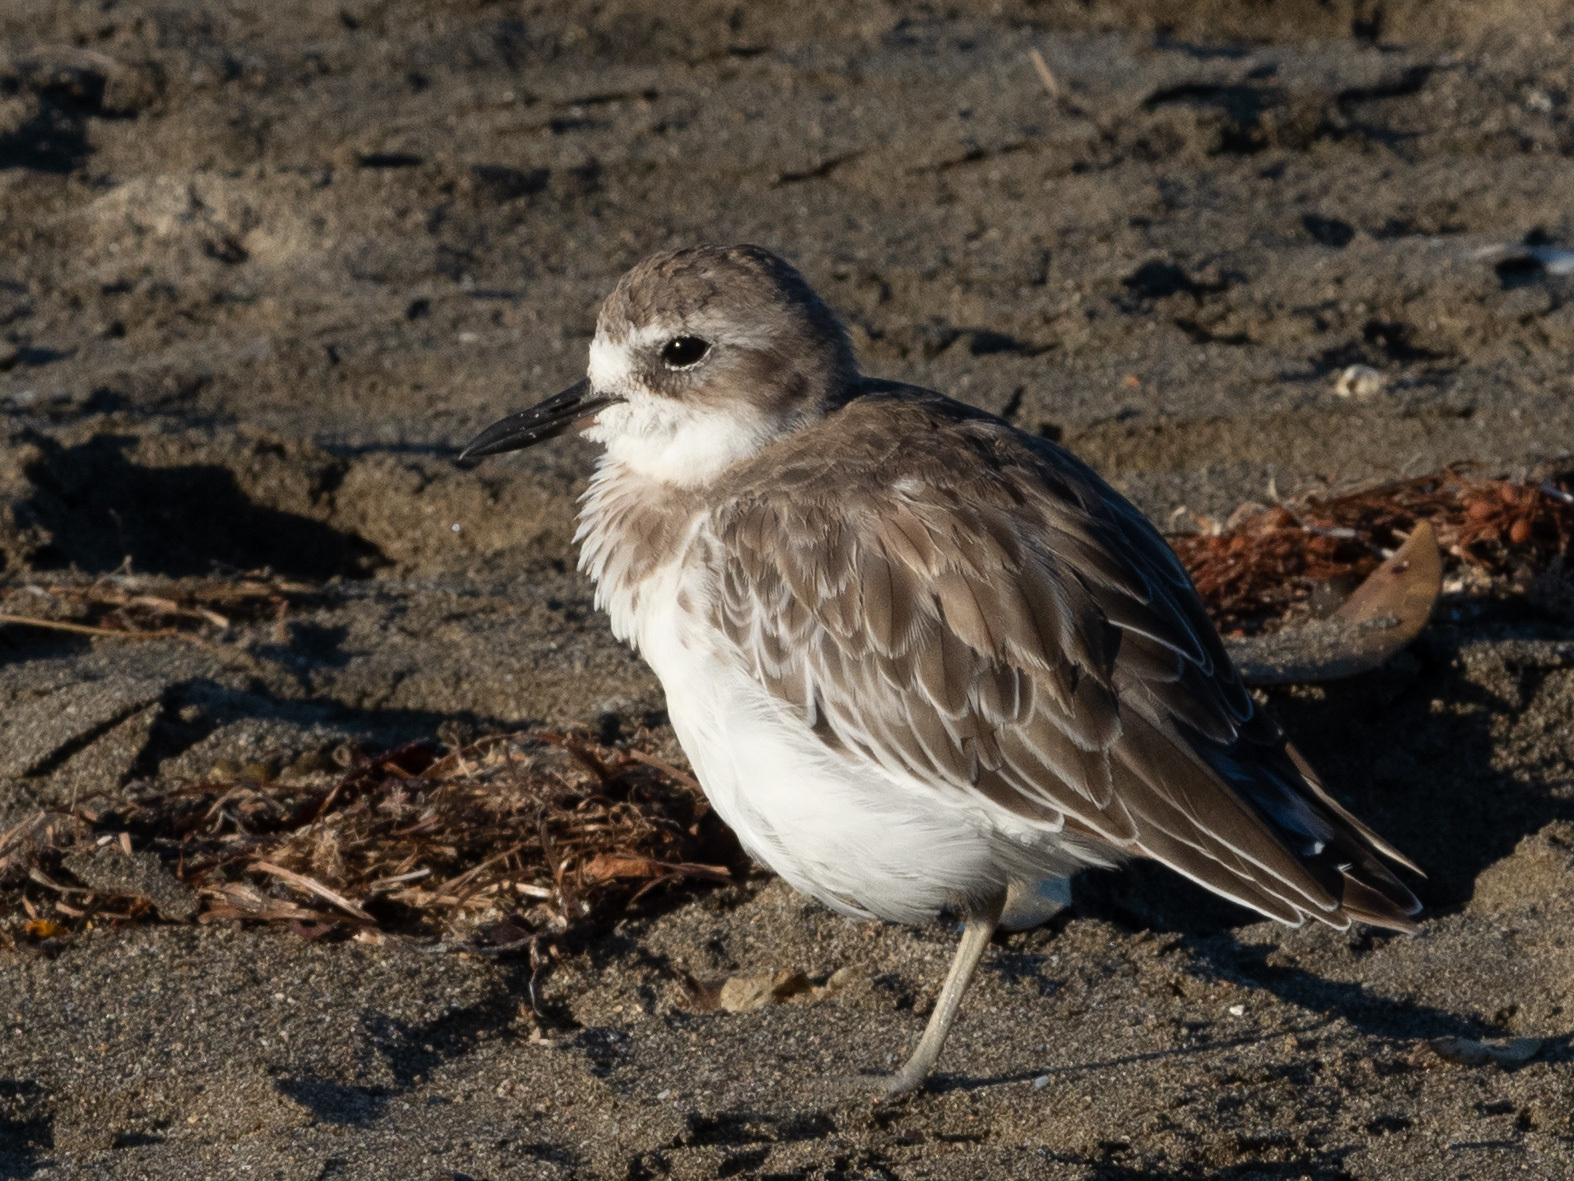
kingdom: Animalia
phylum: Chordata
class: Aves
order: Charadriiformes
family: Charadriidae
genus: Anarhynchus
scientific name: Anarhynchus
